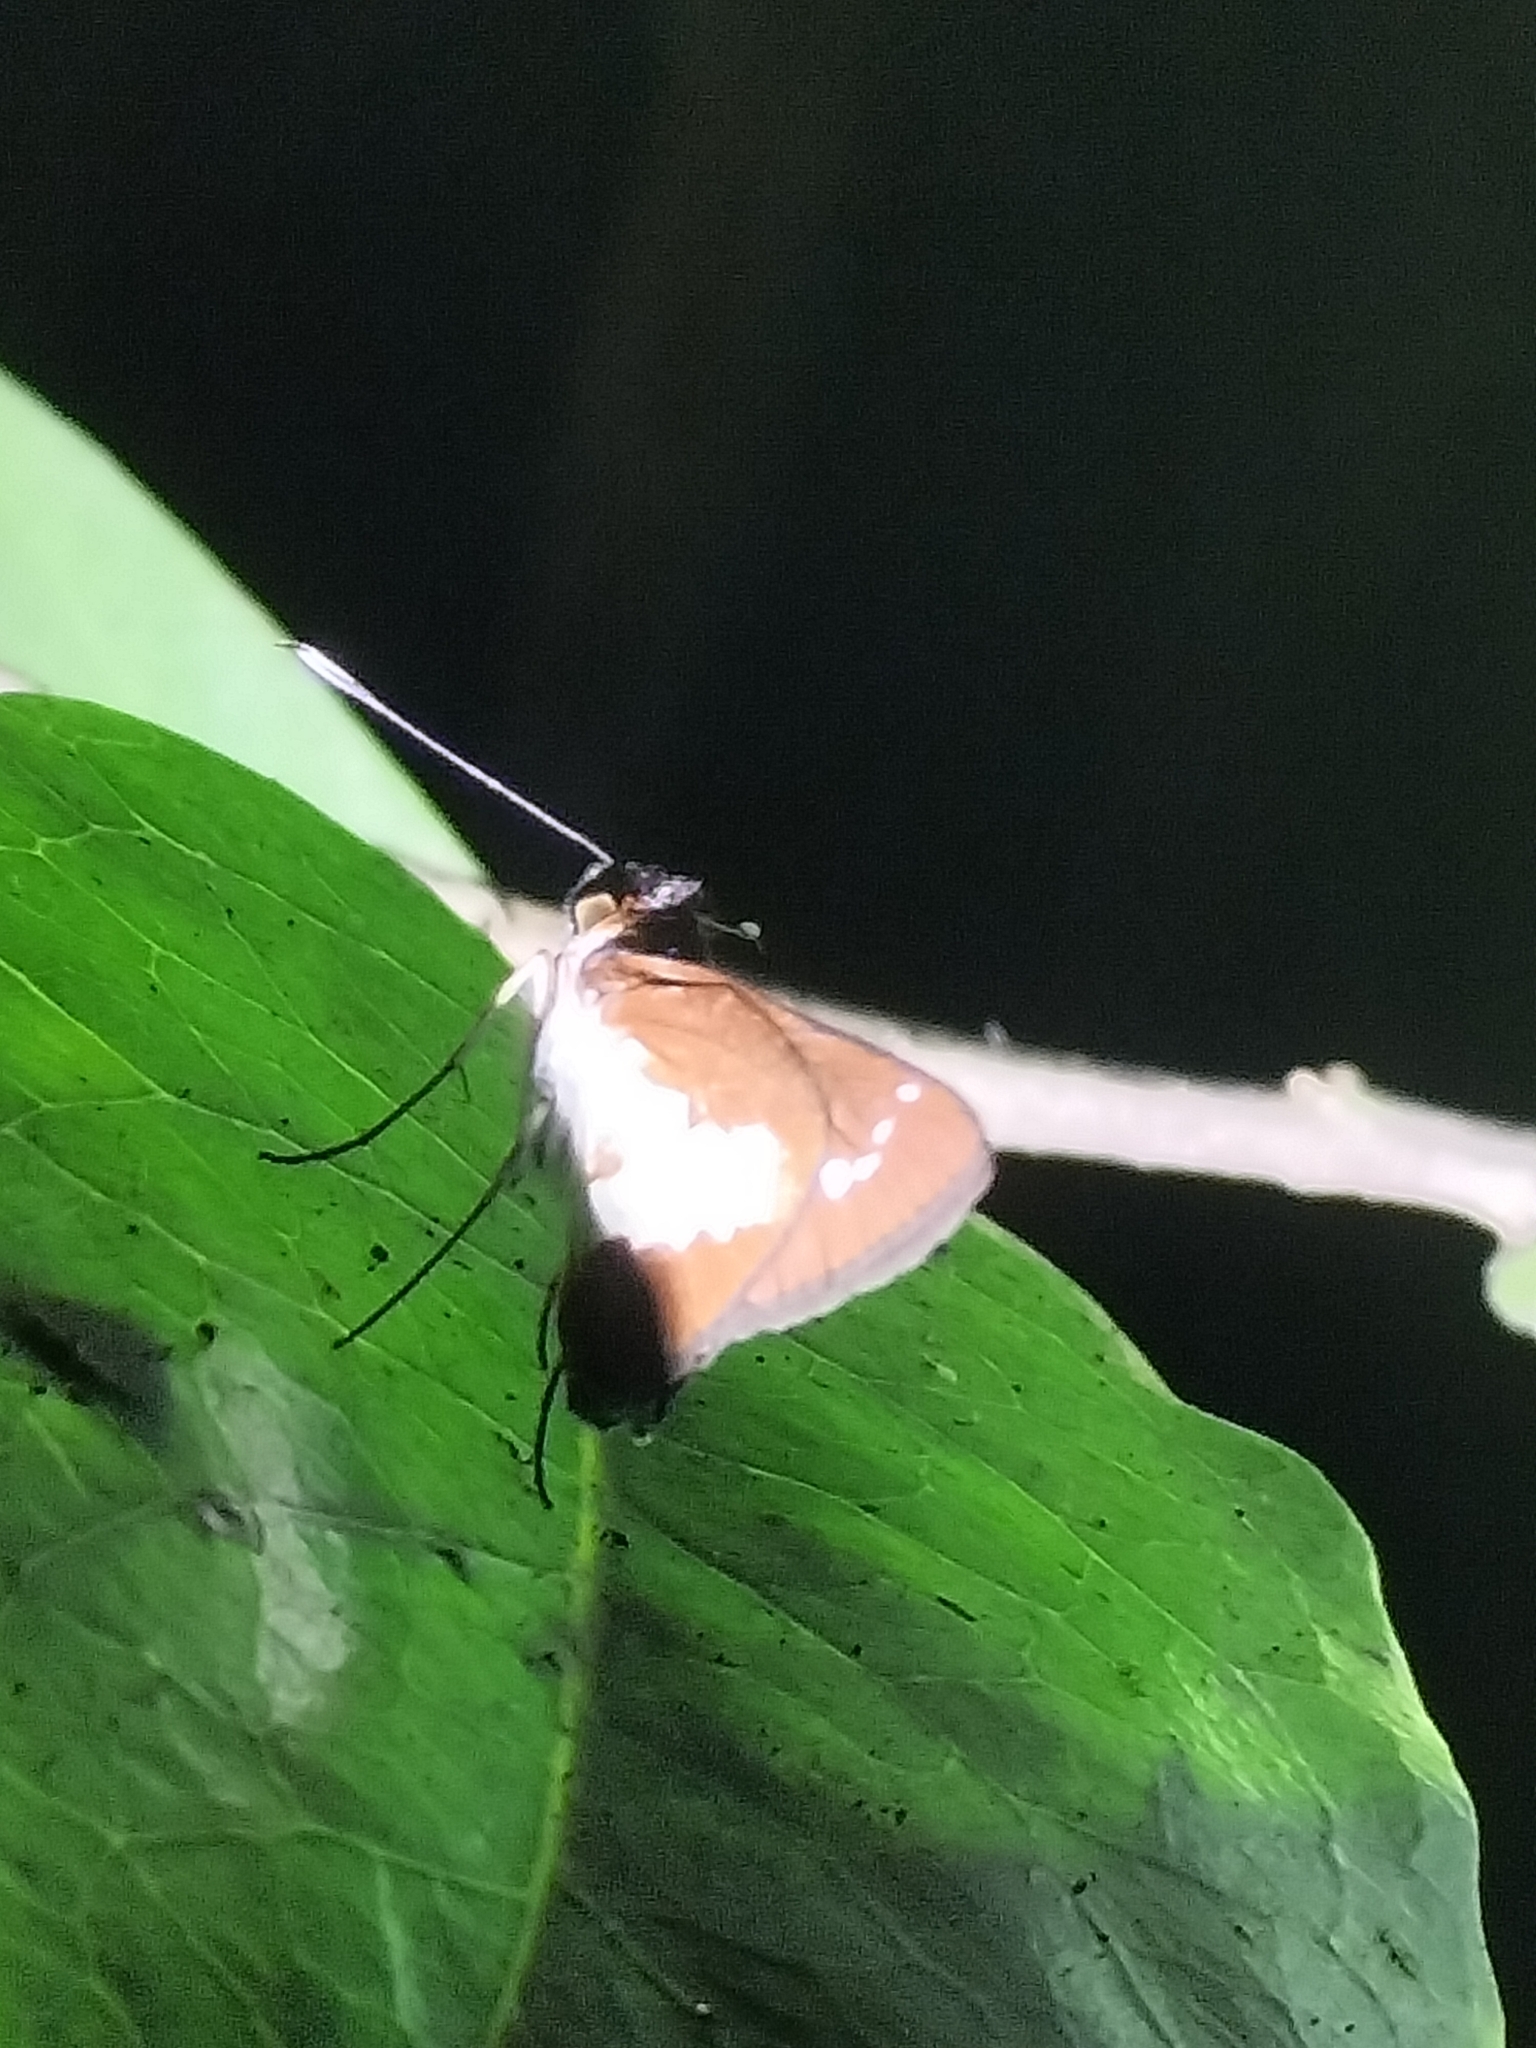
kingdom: Animalia
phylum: Arthropoda
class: Insecta
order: Lepidoptera
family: Hesperiidae
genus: Sabera
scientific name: Sabera caesina
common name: White-clubbed swift
